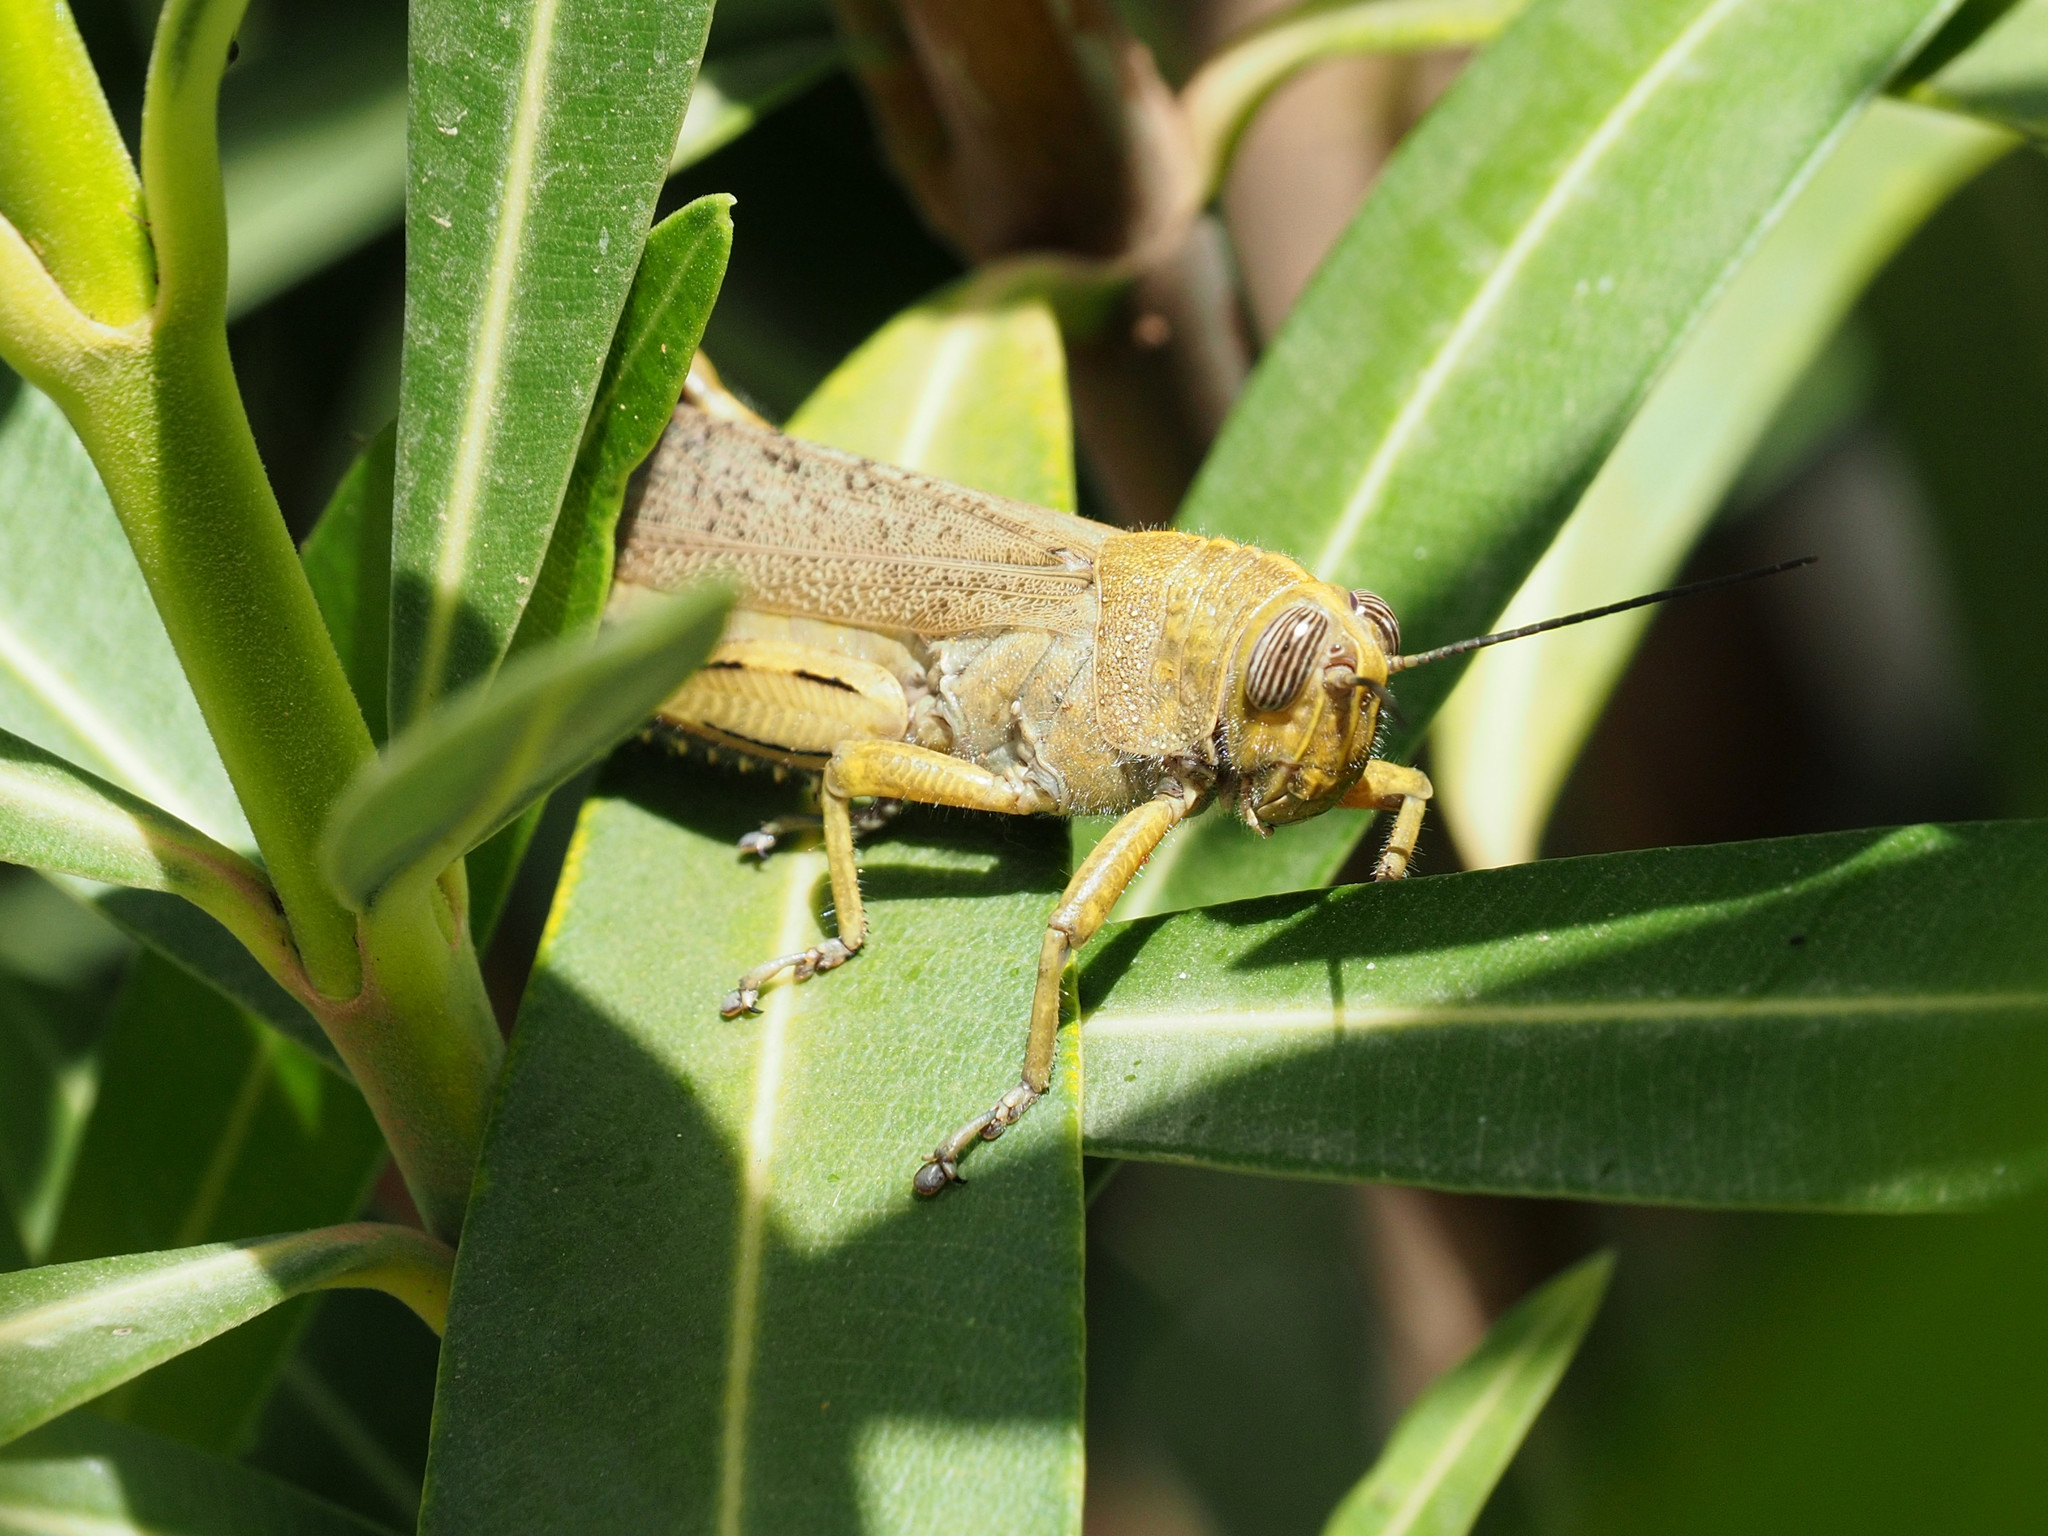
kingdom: Animalia
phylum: Arthropoda
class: Insecta
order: Orthoptera
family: Acrididae
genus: Anacridium
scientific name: Anacridium aegyptium
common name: Egyptian grasshopper
